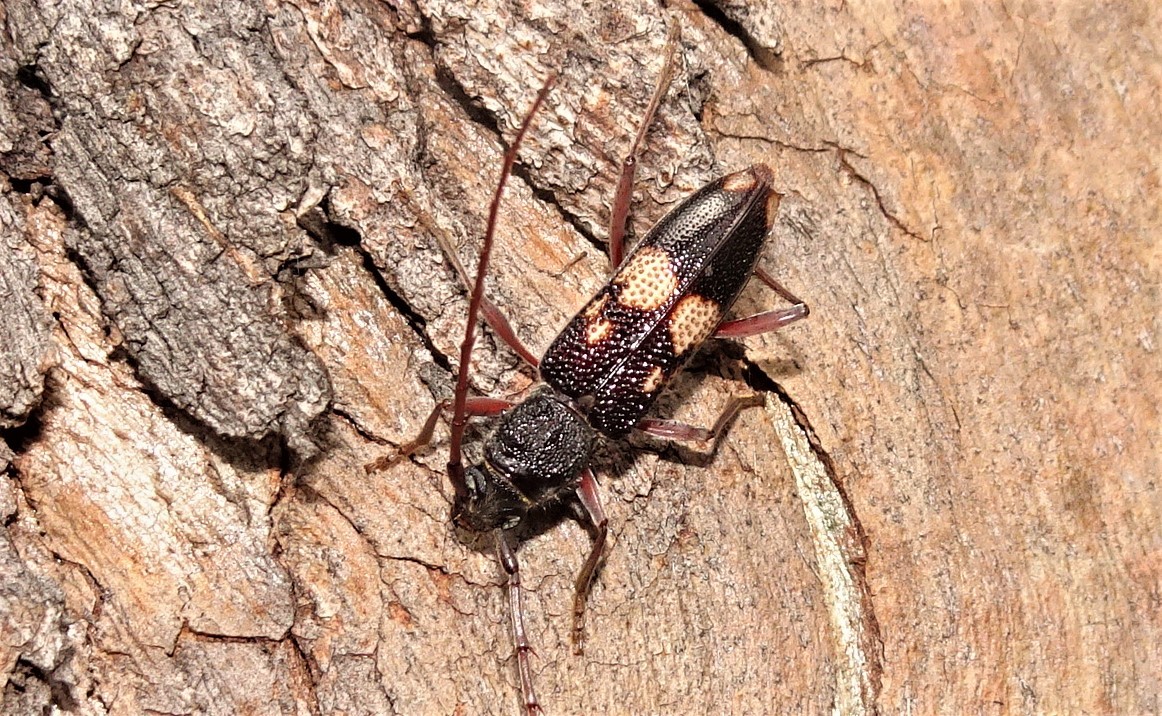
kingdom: Animalia
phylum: Arthropoda
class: Insecta
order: Coleoptera
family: Cerambycidae
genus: Phoracantha
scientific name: Phoracantha punctata
